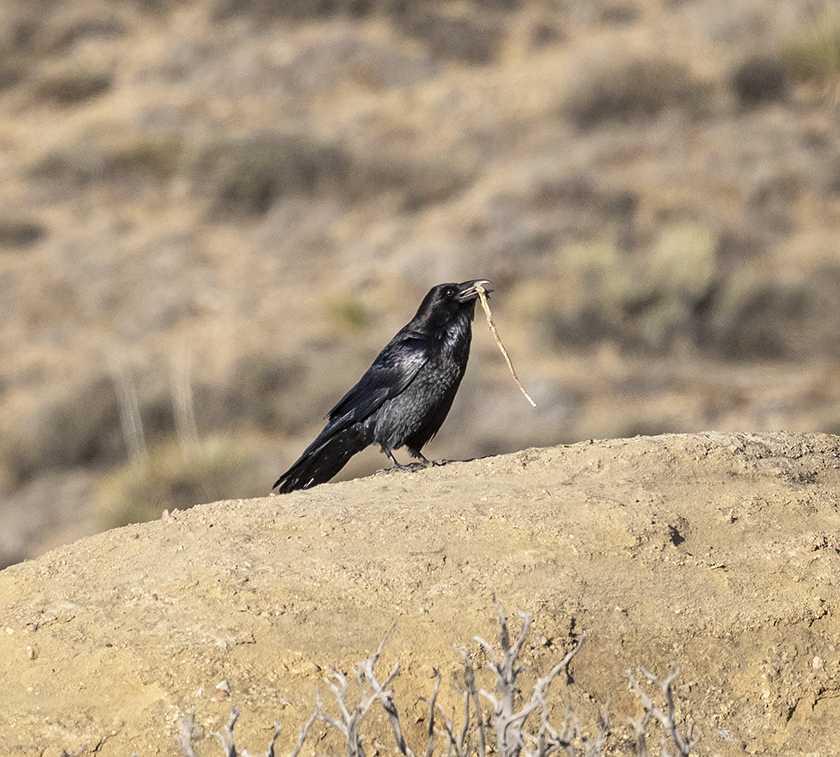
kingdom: Animalia
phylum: Chordata
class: Aves
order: Passeriformes
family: Corvidae
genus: Corvus
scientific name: Corvus corax
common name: Common raven
